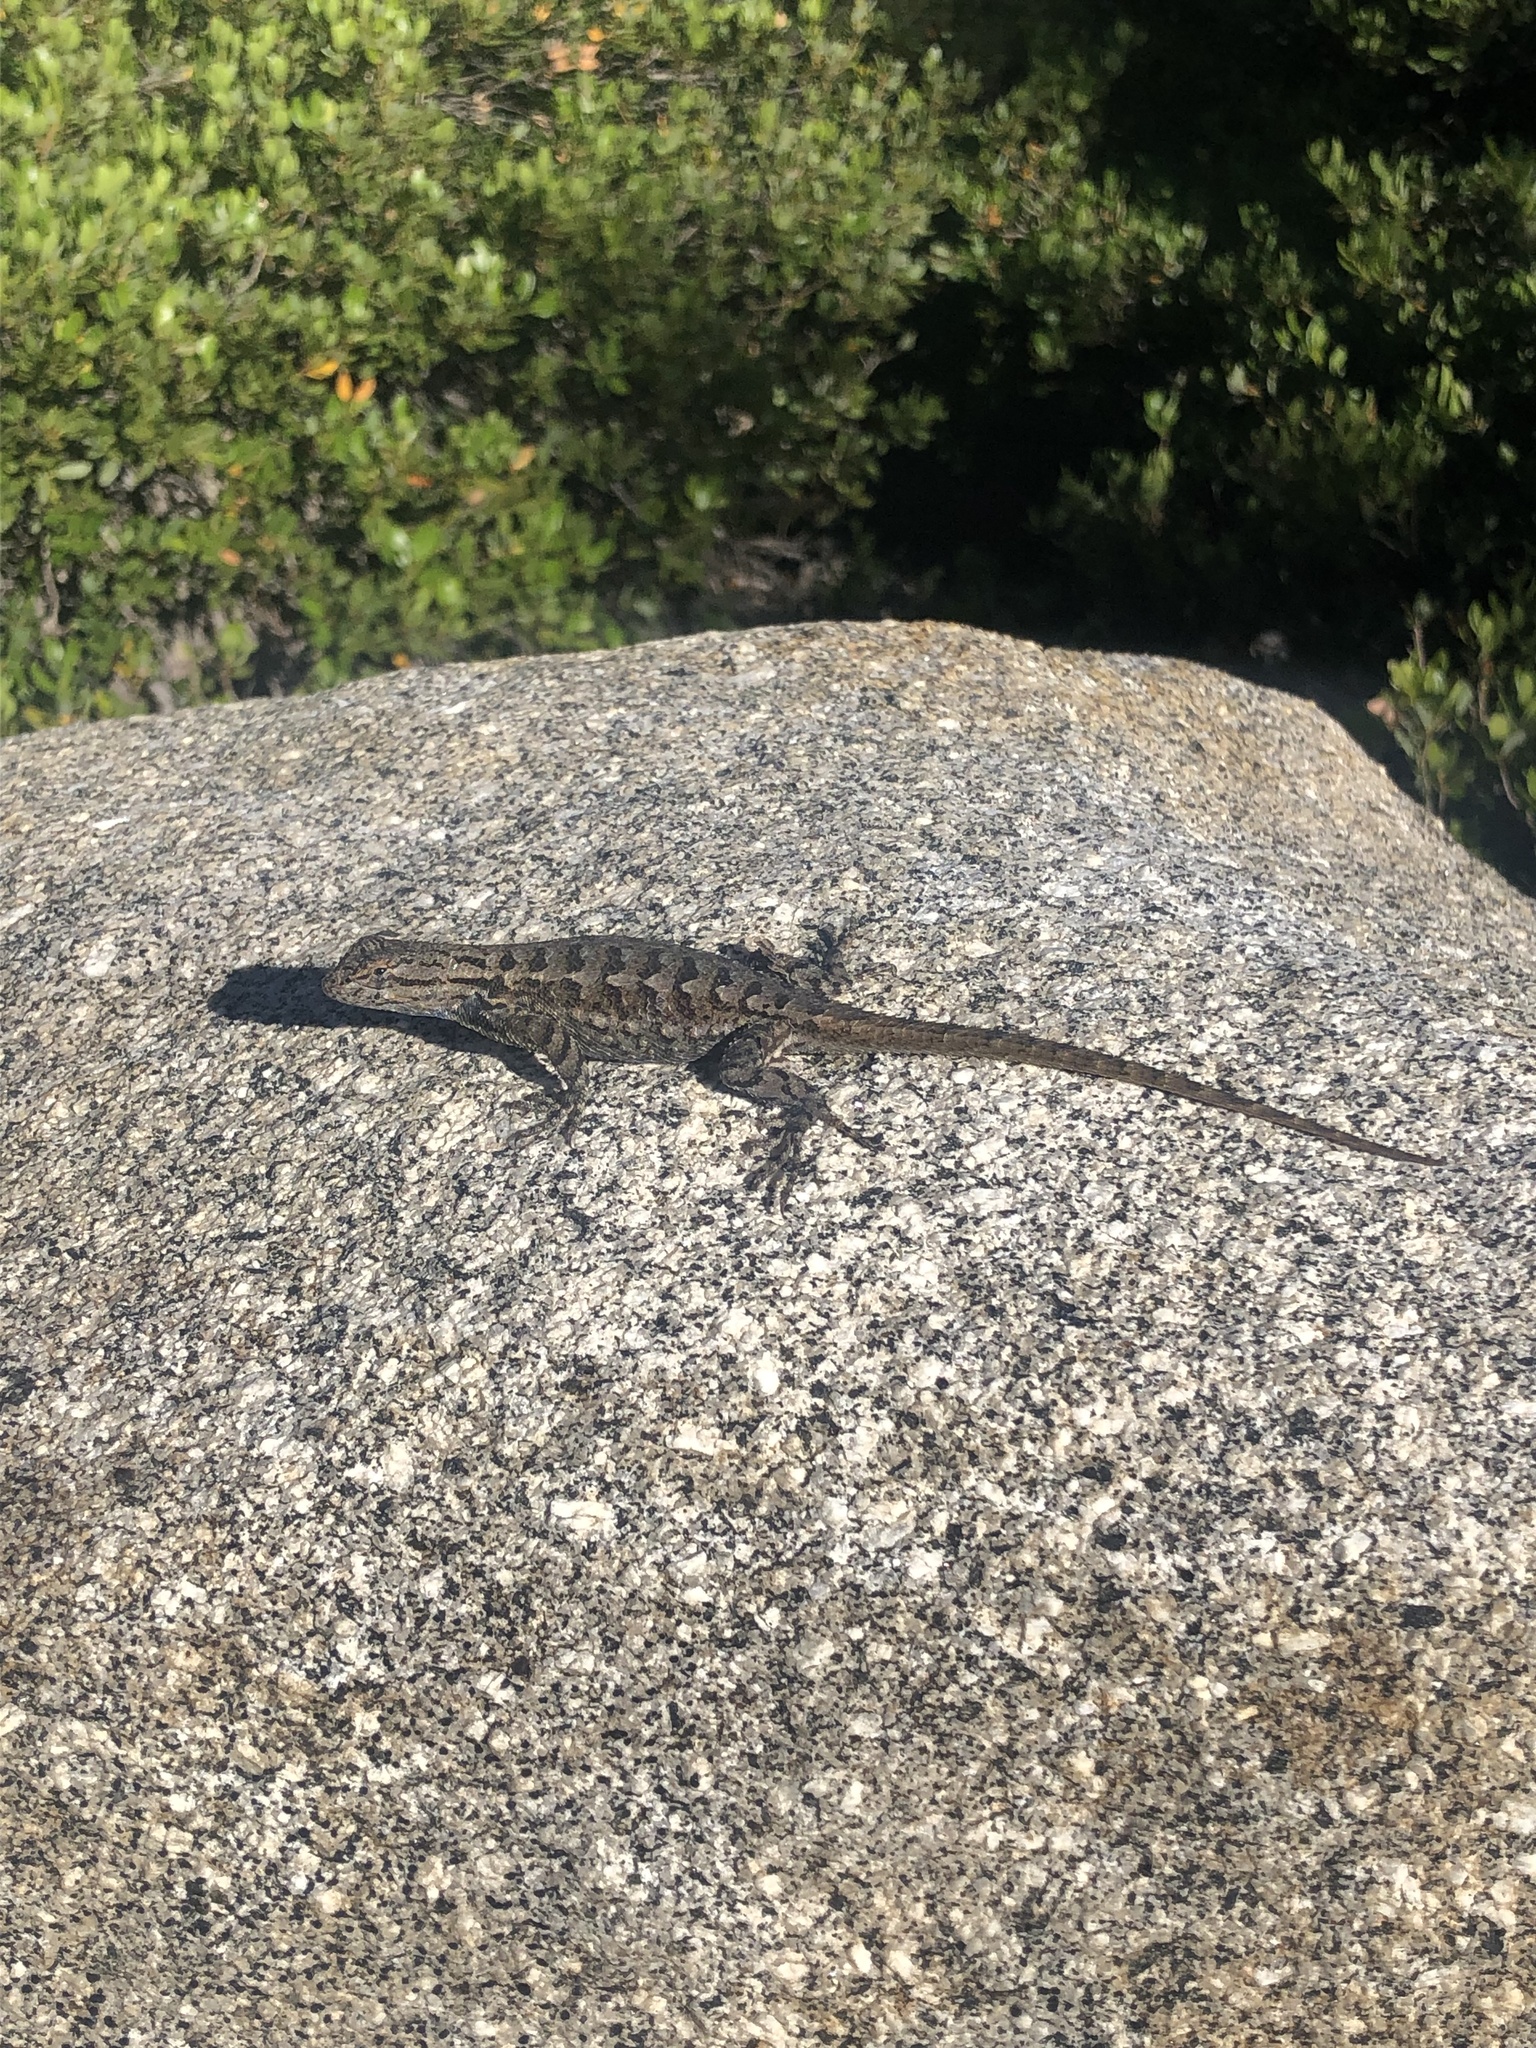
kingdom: Animalia
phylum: Chordata
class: Squamata
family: Phrynosomatidae
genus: Sceloporus
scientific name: Sceloporus occidentalis
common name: Western fence lizard
